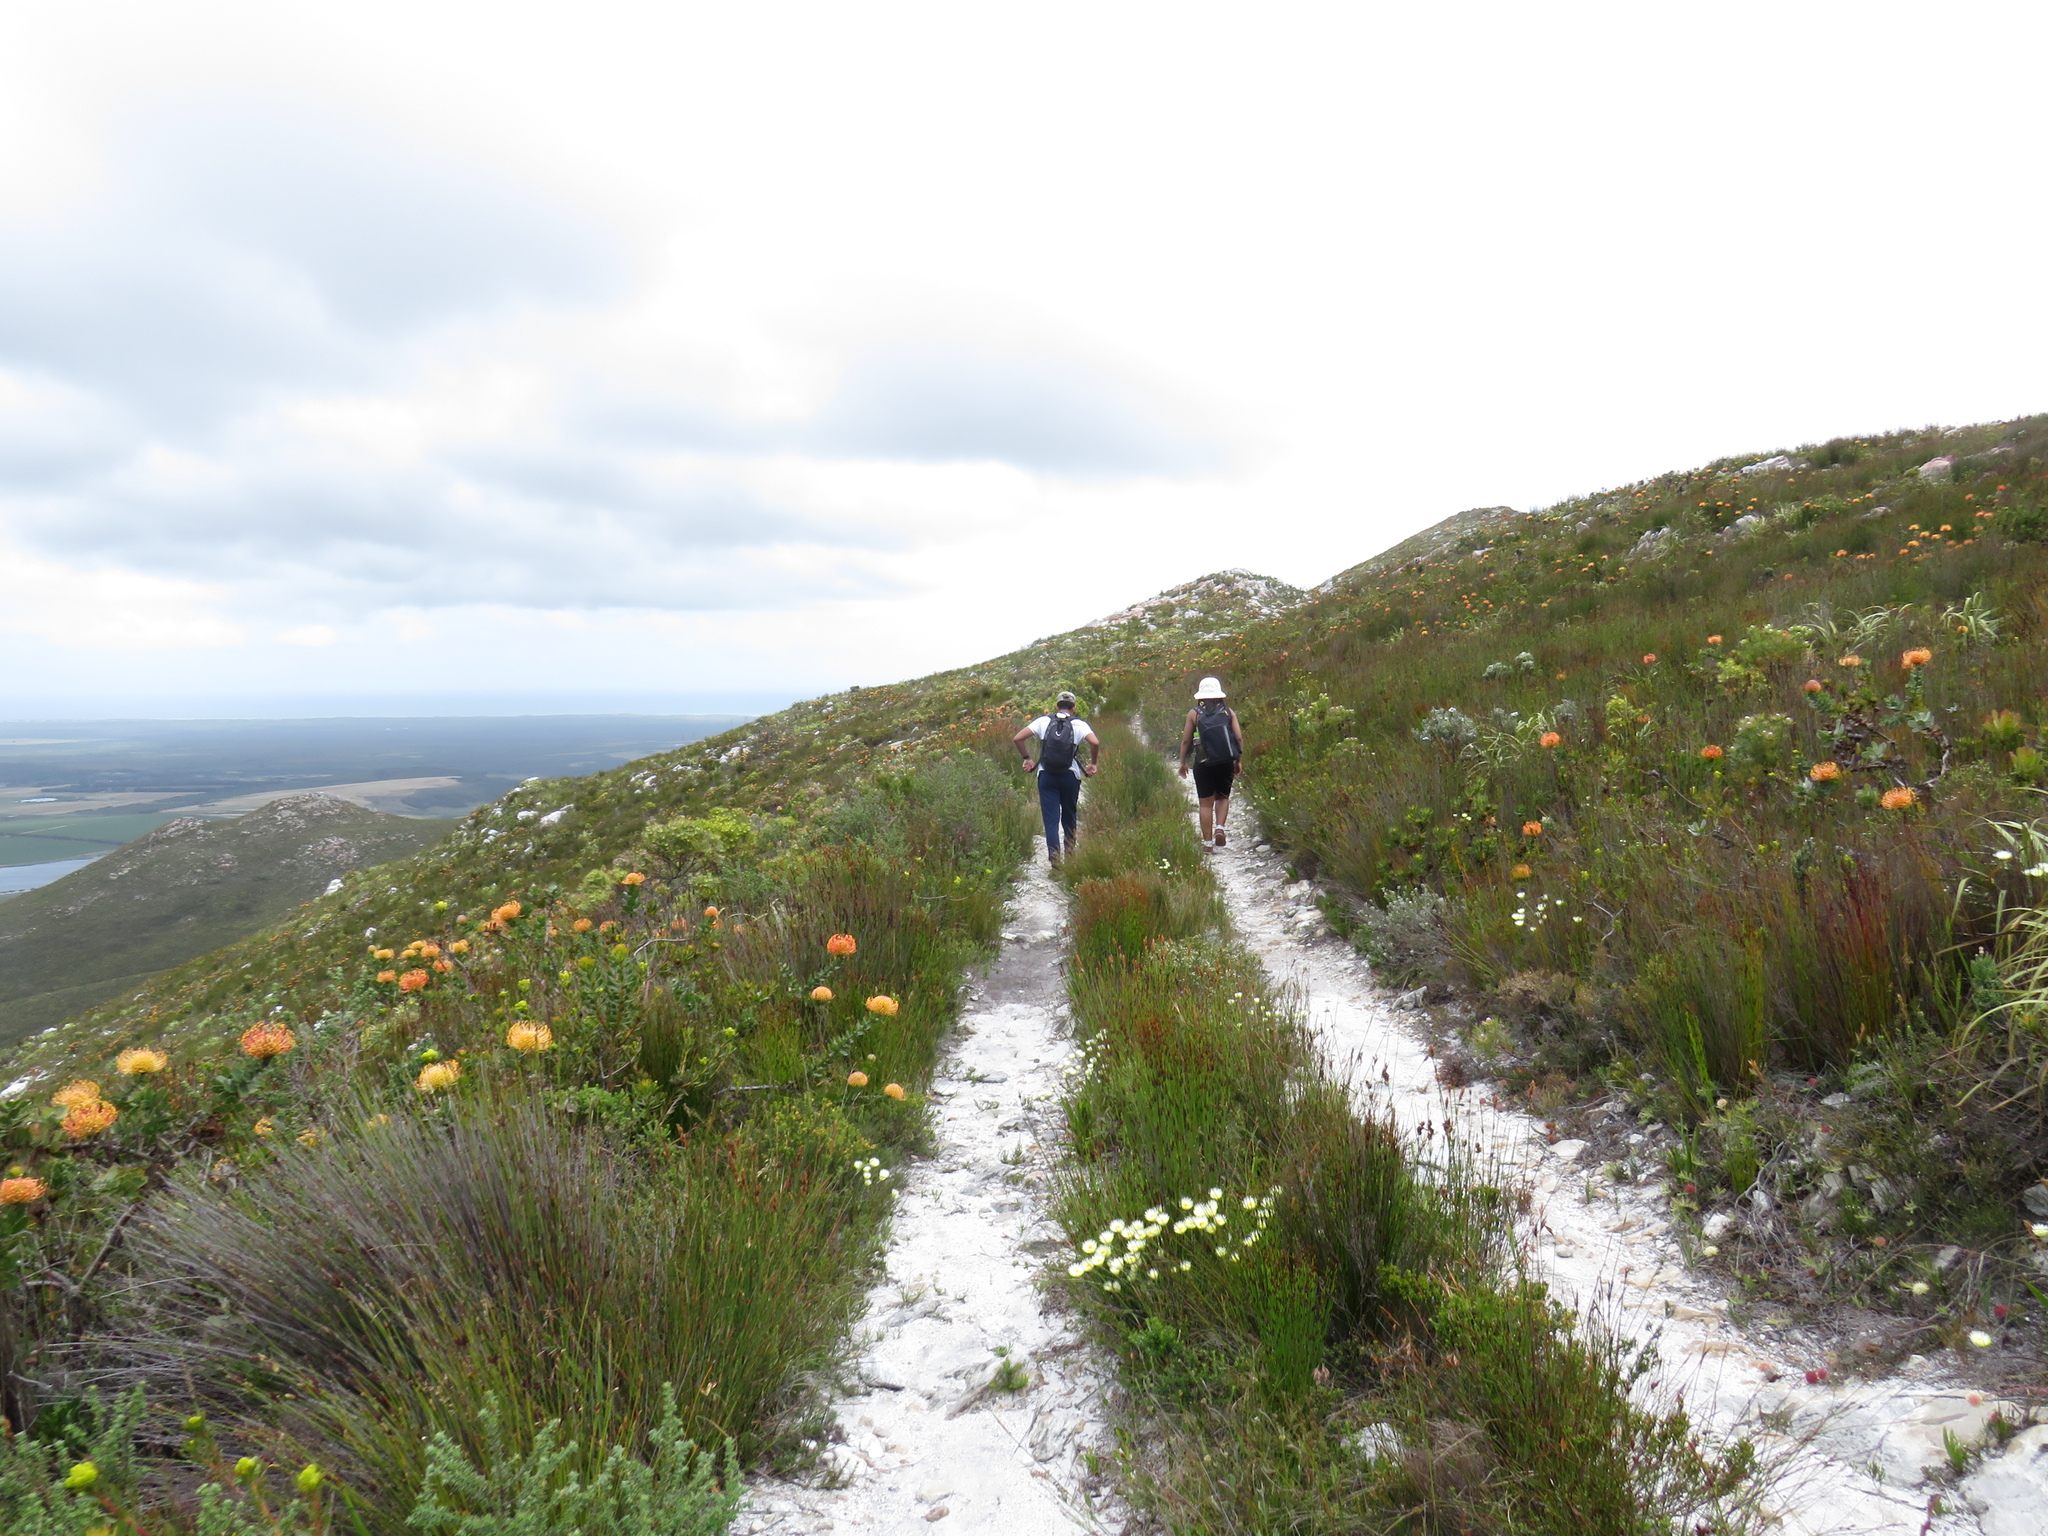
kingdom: Plantae
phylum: Tracheophyta
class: Magnoliopsida
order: Proteales
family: Proteaceae
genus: Leucospermum
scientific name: Leucospermum patersonii
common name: False tree pincushion
